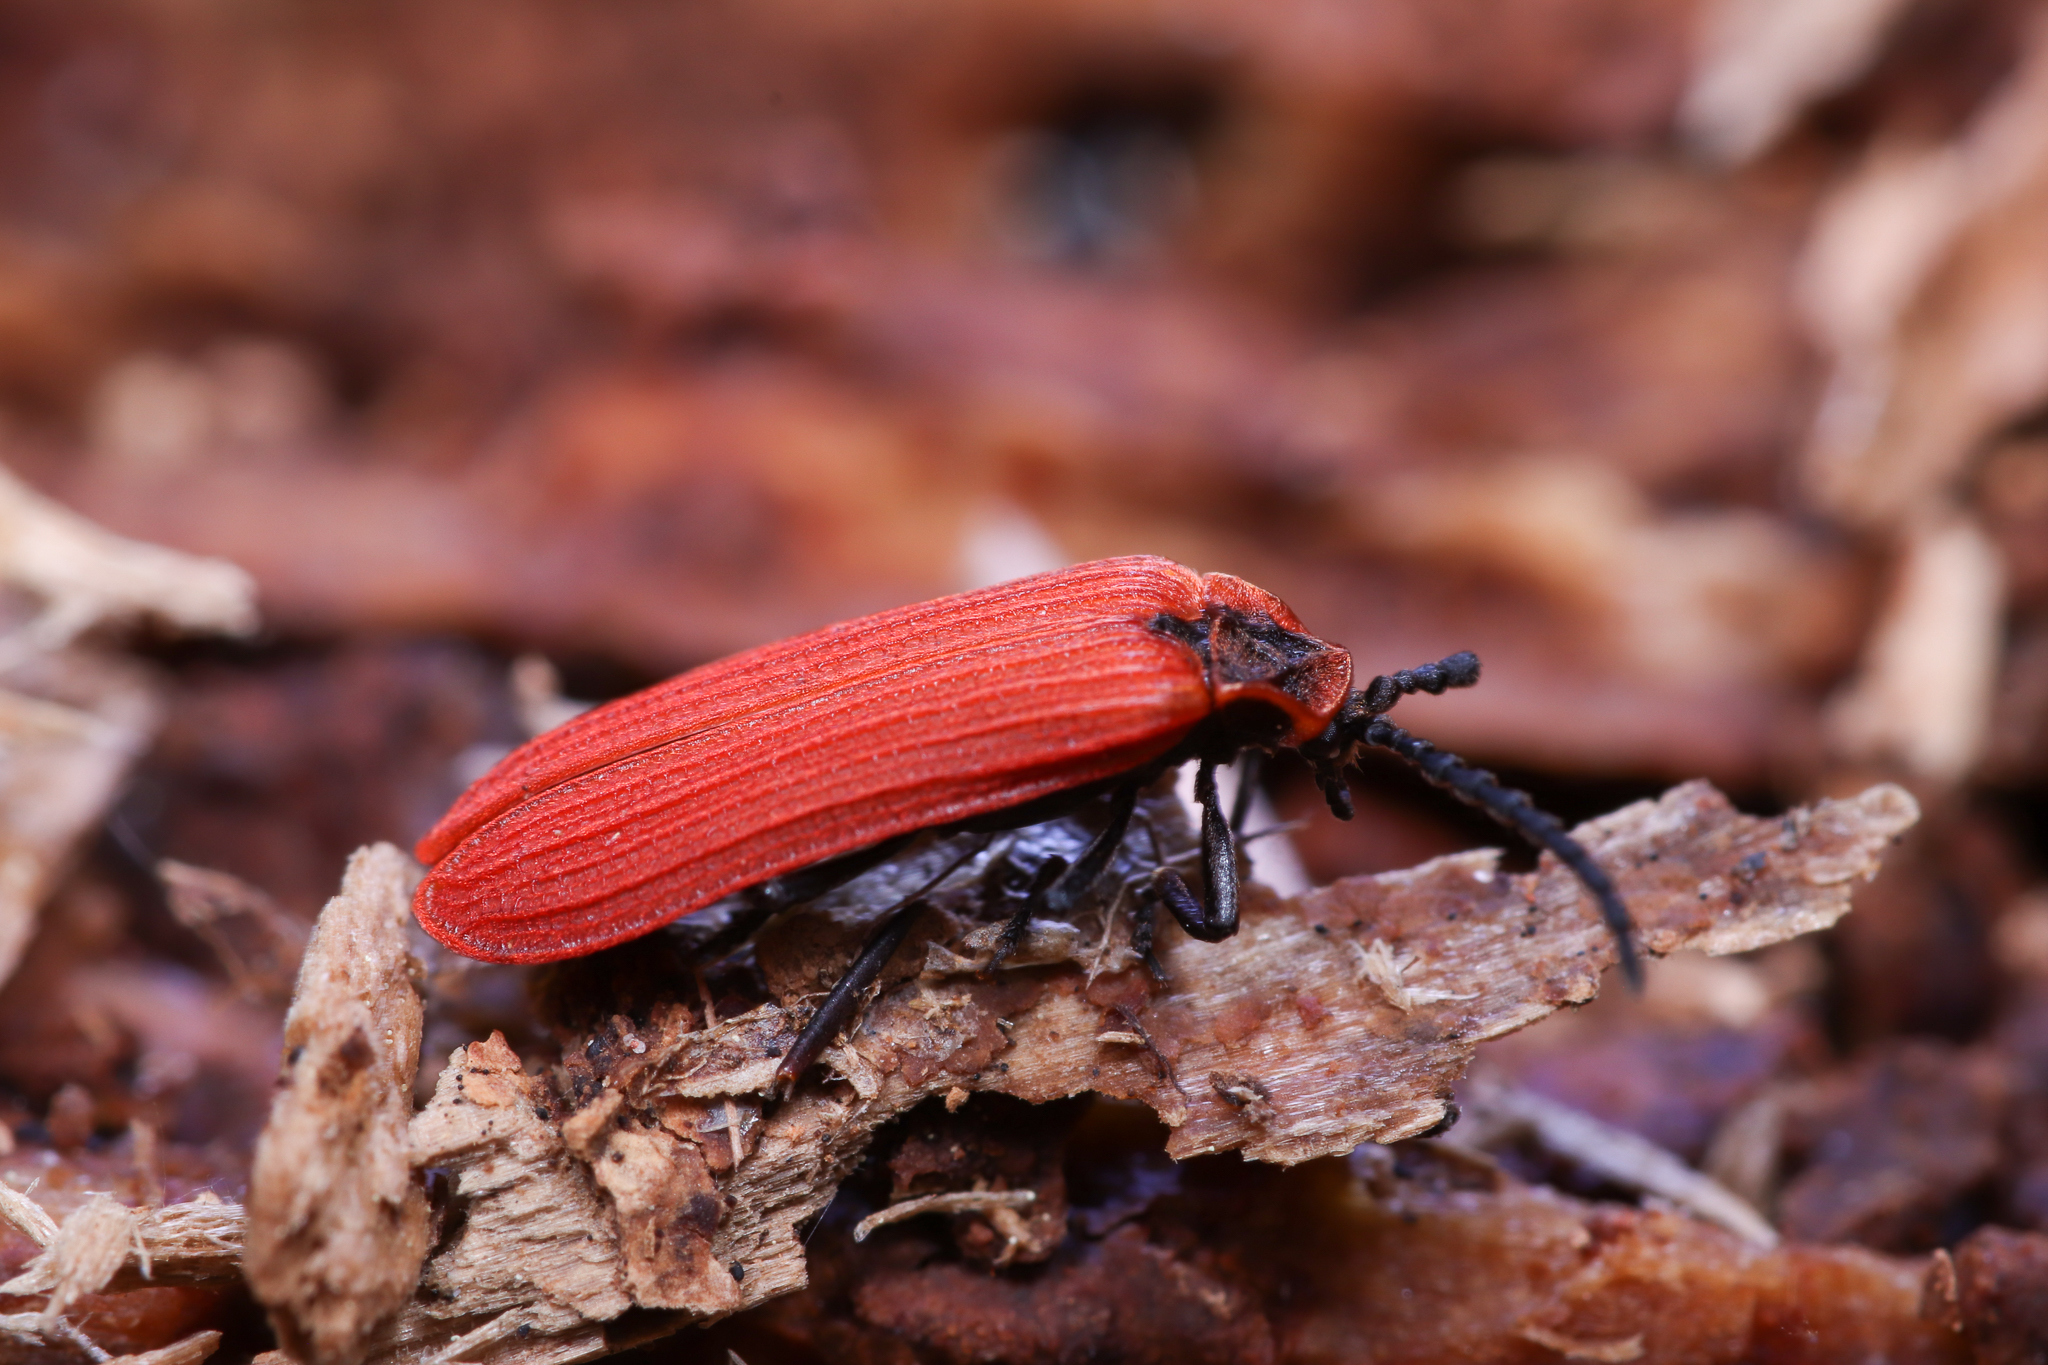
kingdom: Animalia
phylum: Arthropoda
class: Insecta
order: Coleoptera
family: Lycidae
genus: Dictyoptera
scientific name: Dictyoptera aurora
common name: Golden net-winged beetle
